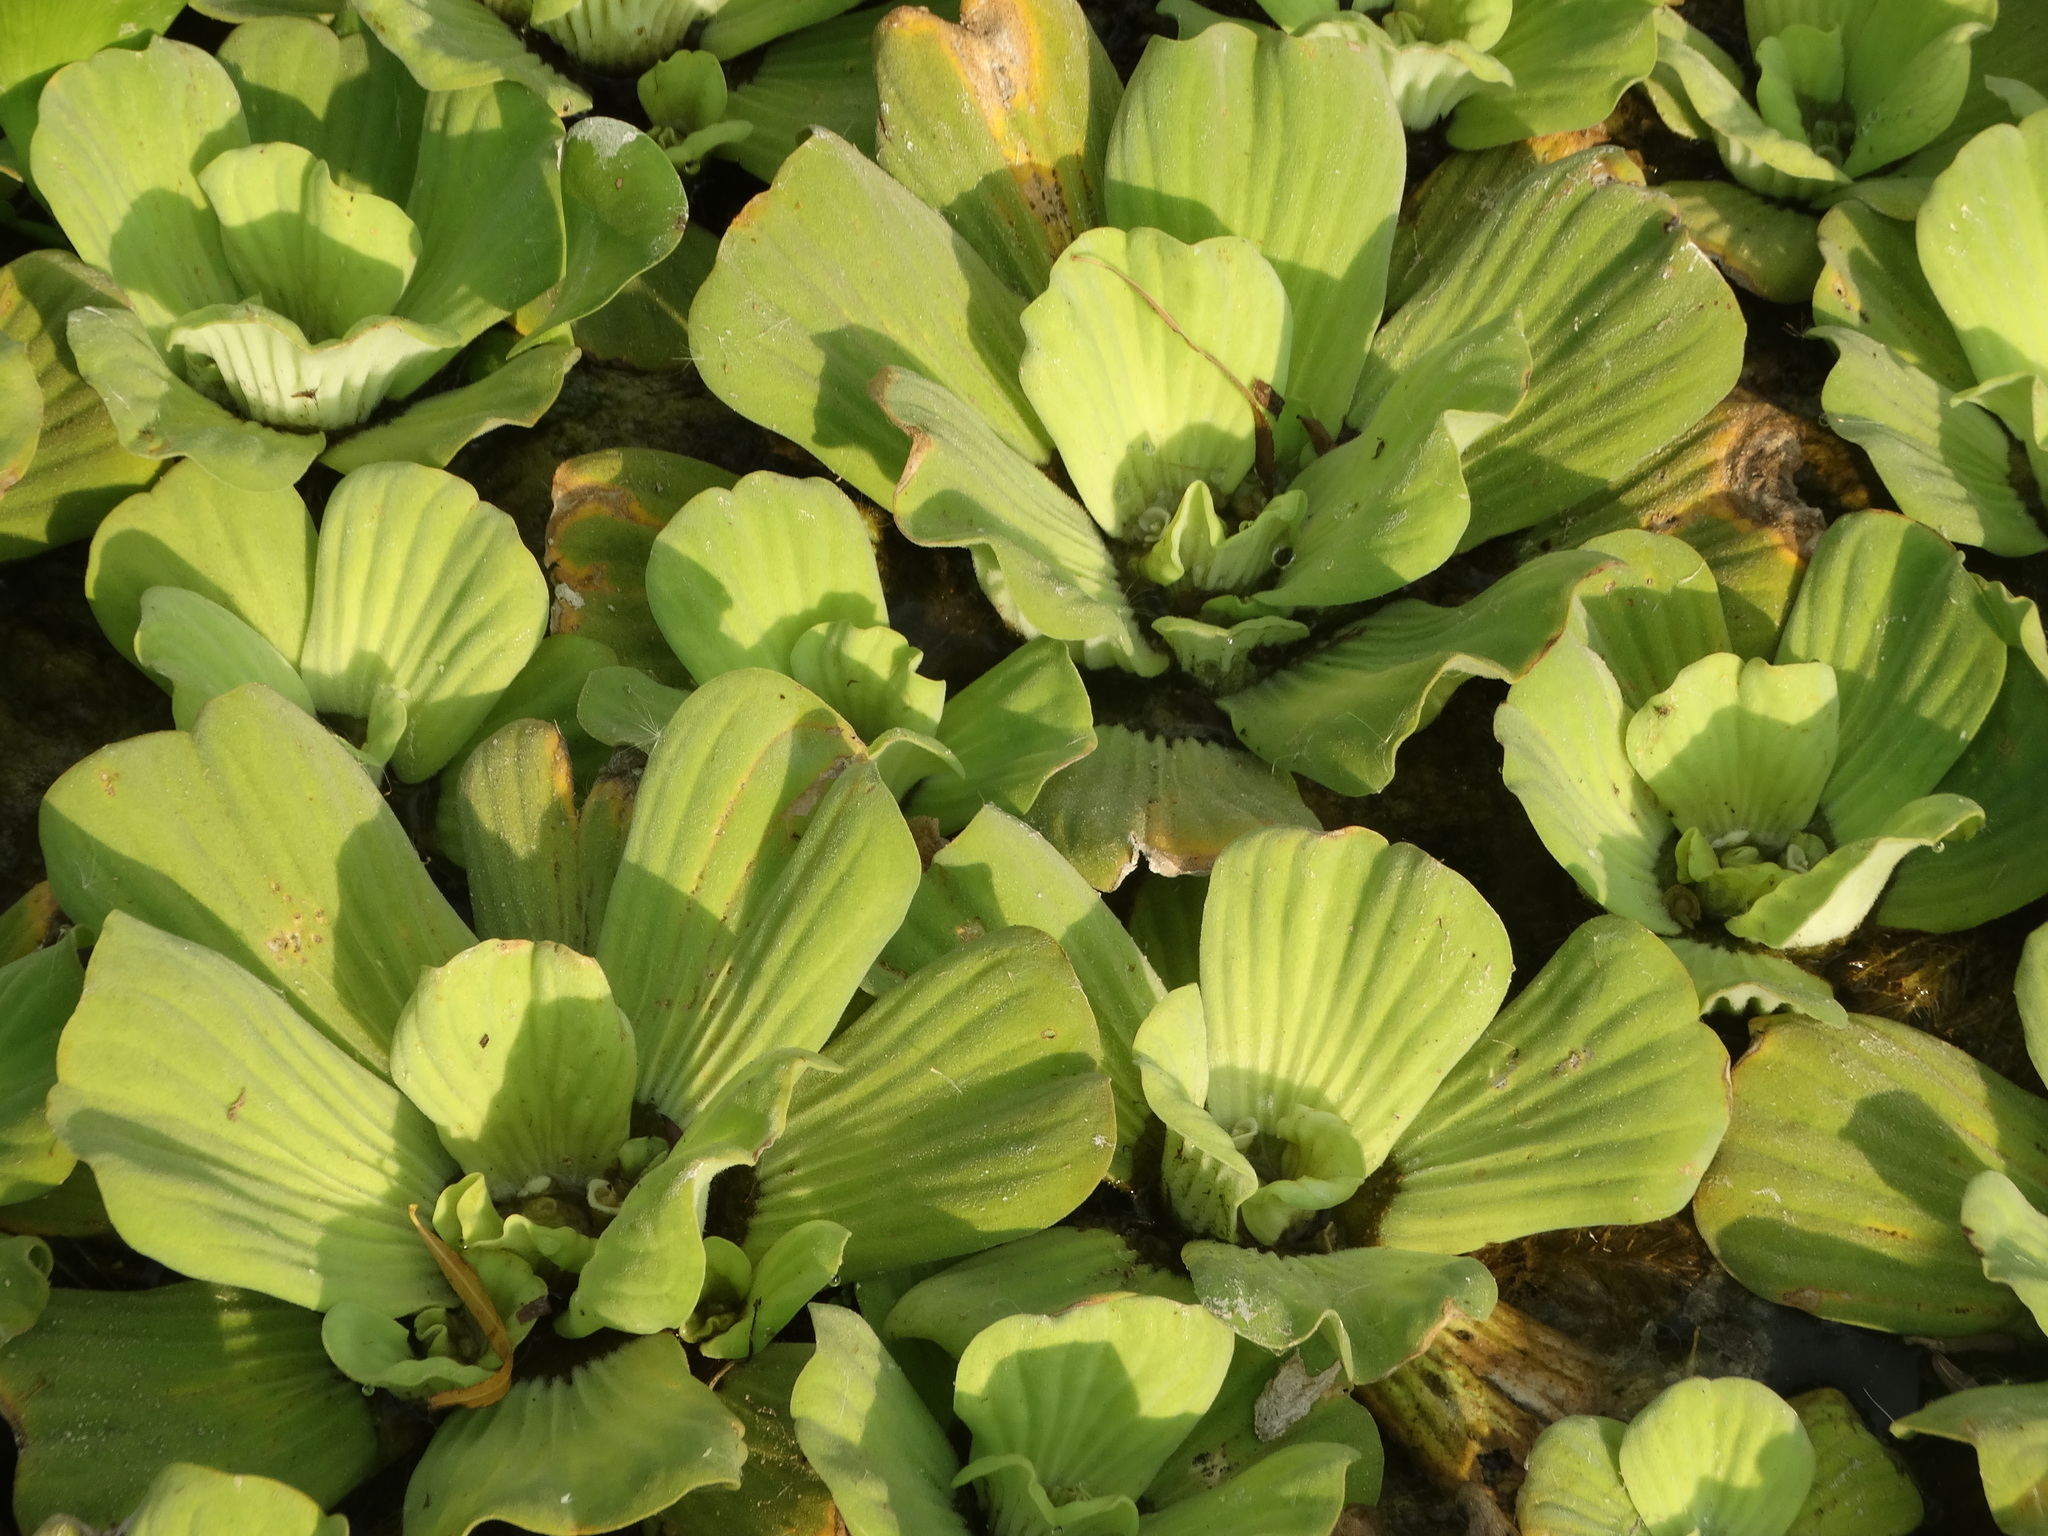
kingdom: Plantae
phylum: Tracheophyta
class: Liliopsida
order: Alismatales
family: Araceae
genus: Pistia
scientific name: Pistia stratiotes
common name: Water lettuce
